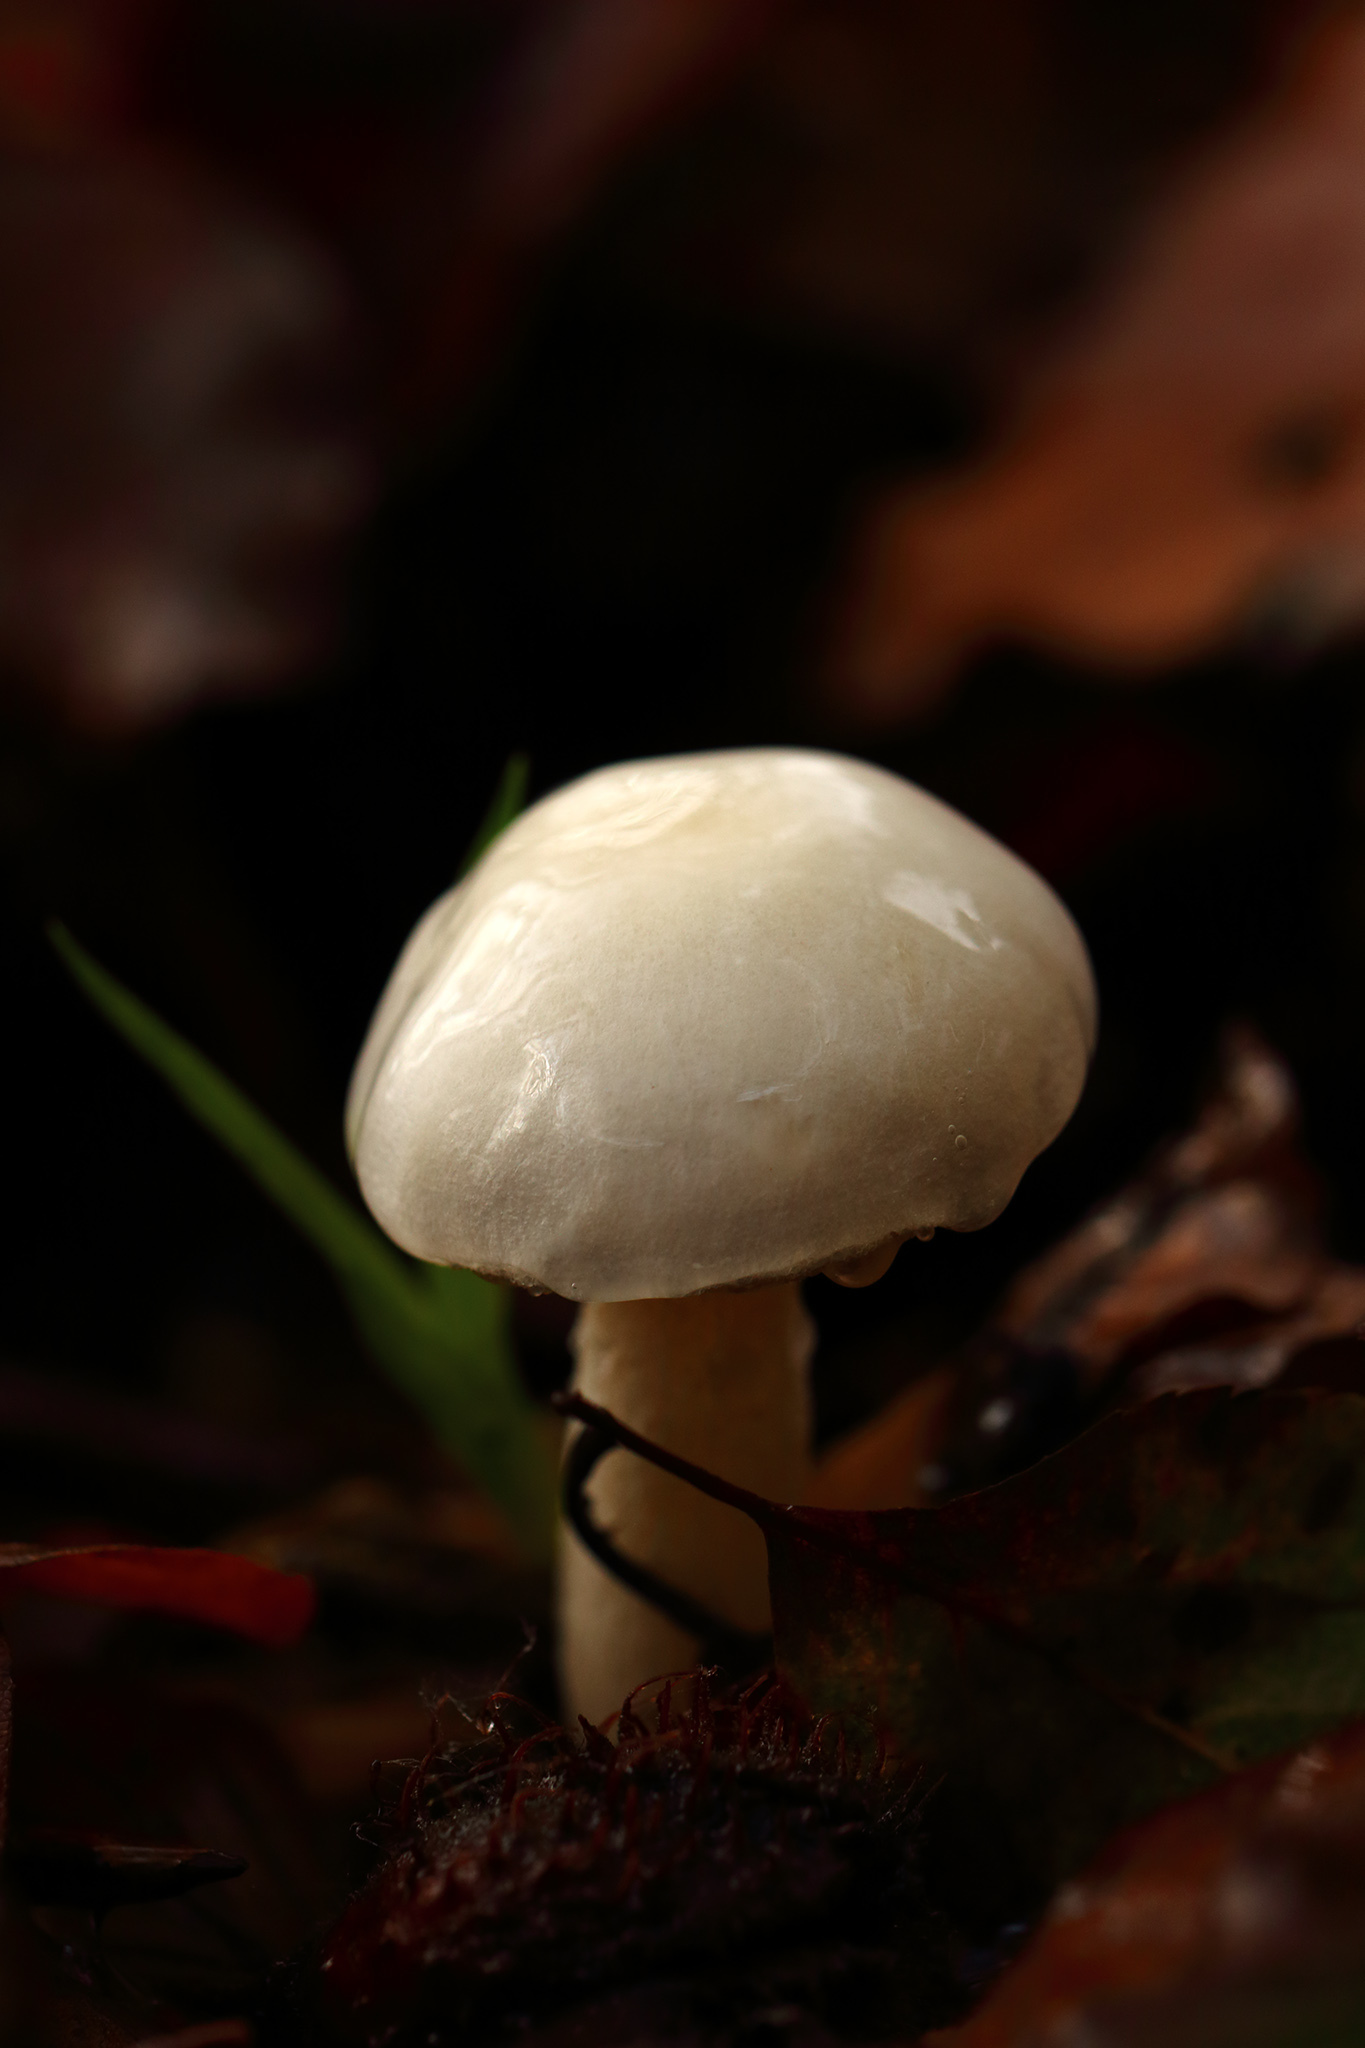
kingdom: Fungi
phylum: Basidiomycota
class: Agaricomycetes
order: Agaricales
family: Physalacriaceae
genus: Mucidula
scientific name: Mucidula mucida
